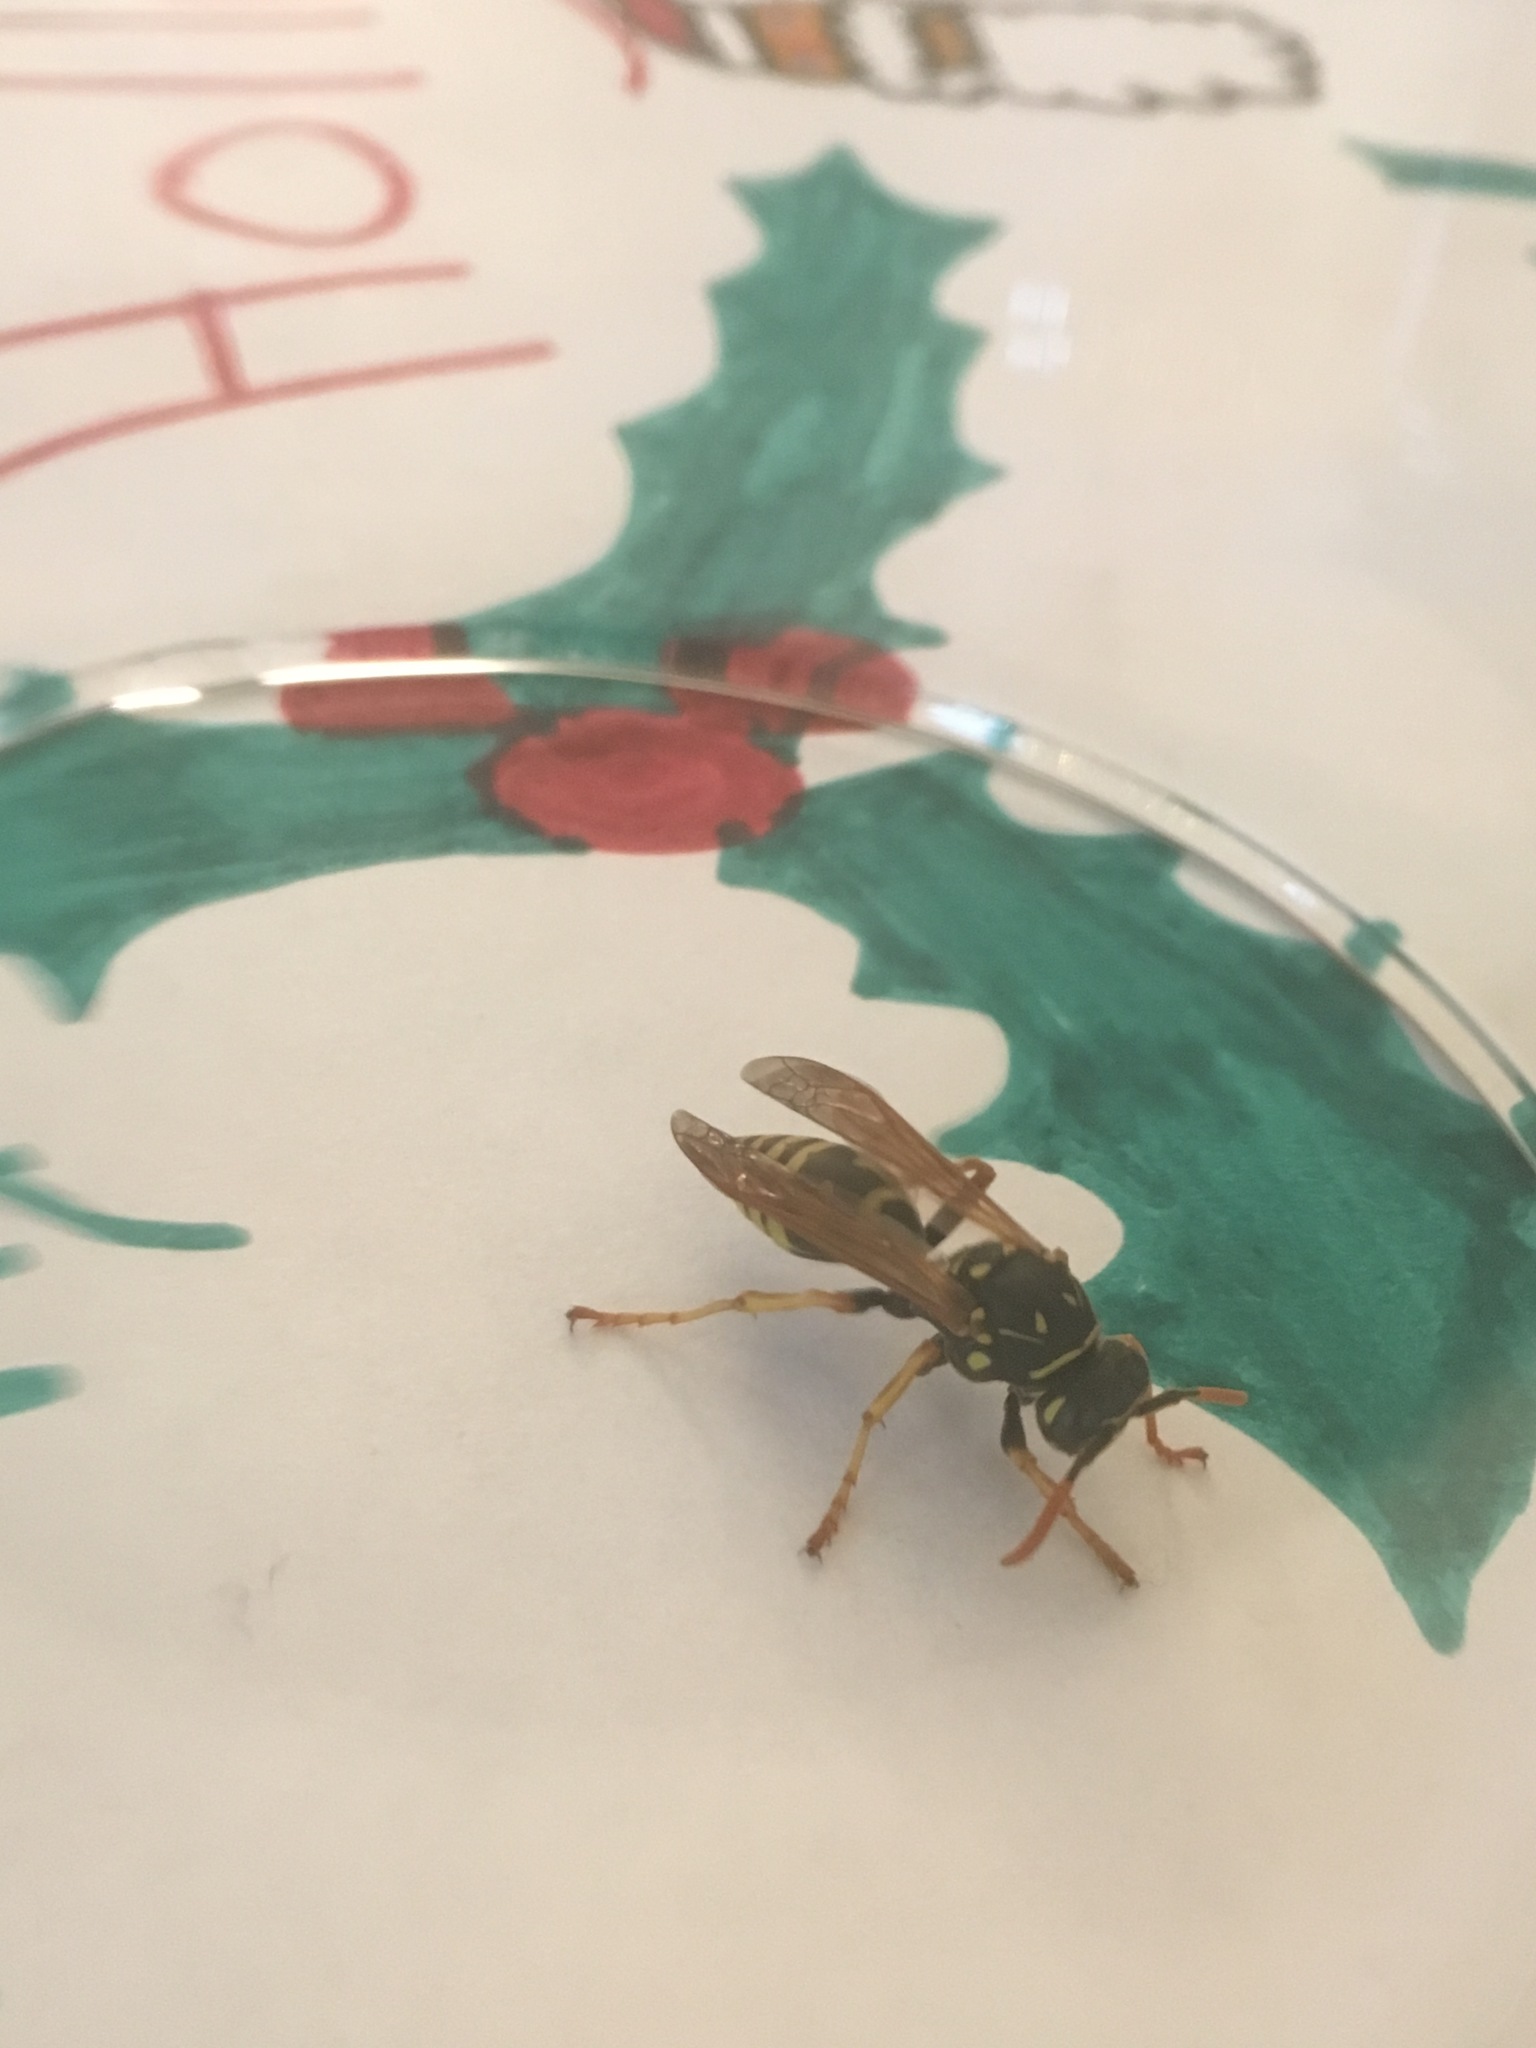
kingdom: Animalia
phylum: Arthropoda
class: Insecta
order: Hymenoptera
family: Eumenidae
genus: Polistes
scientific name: Polistes dominula
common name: Paper wasp
